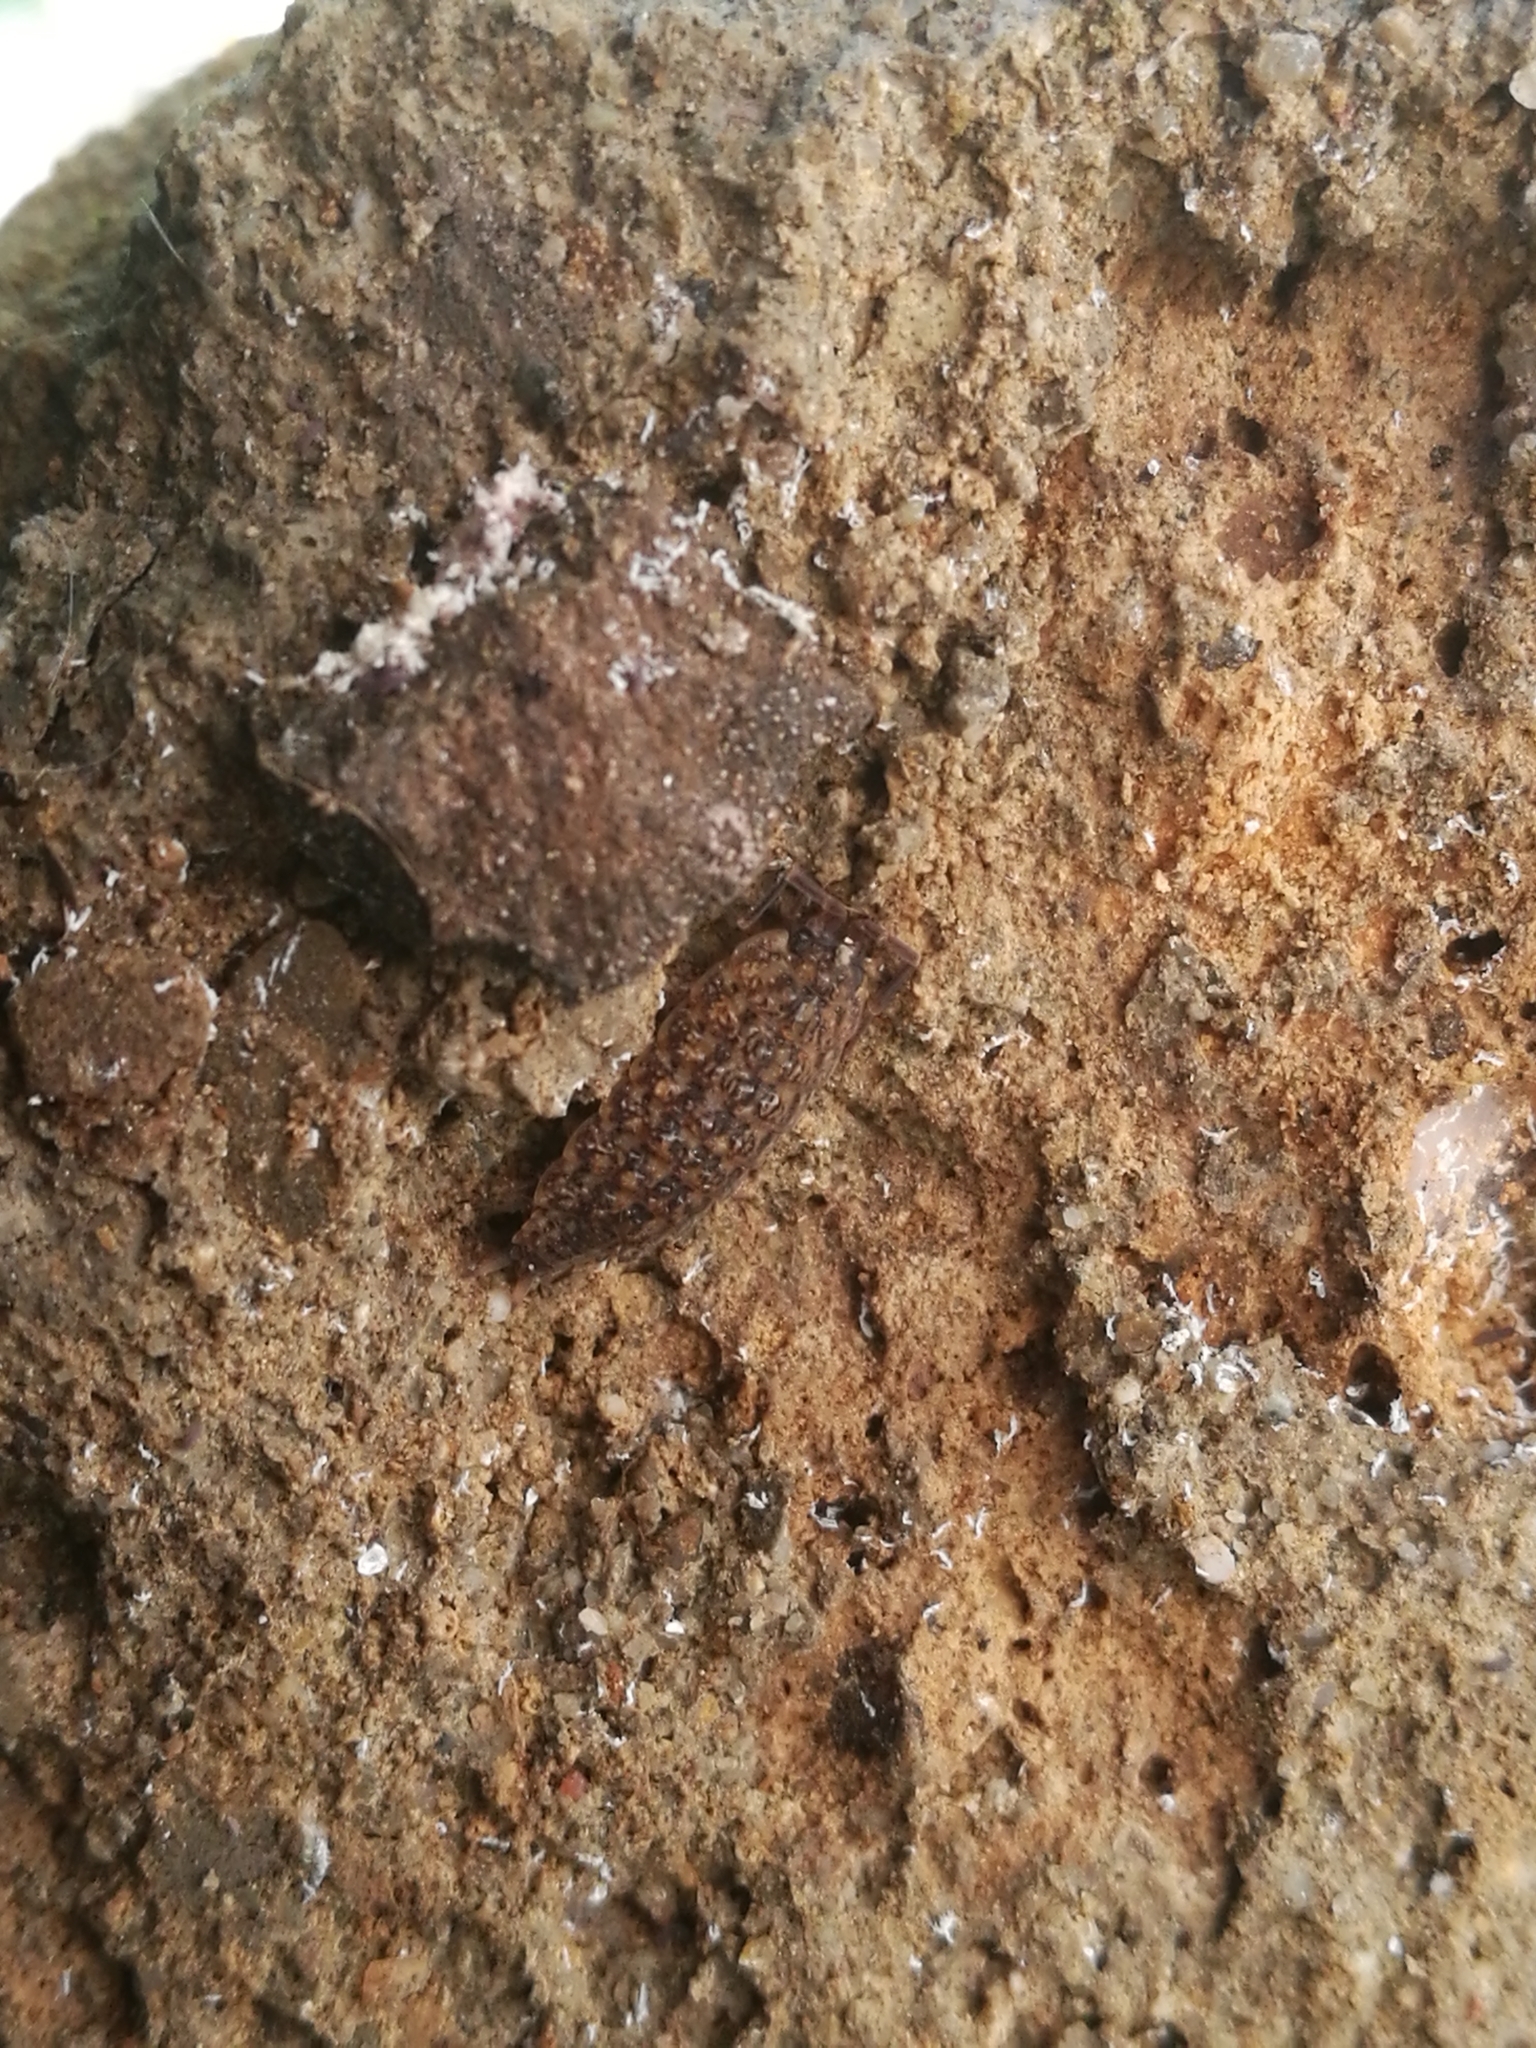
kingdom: Animalia
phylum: Arthropoda
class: Malacostraca
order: Isopoda
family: Agnaridae
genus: Orthometopon
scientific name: Orthometopon dalmatinum
